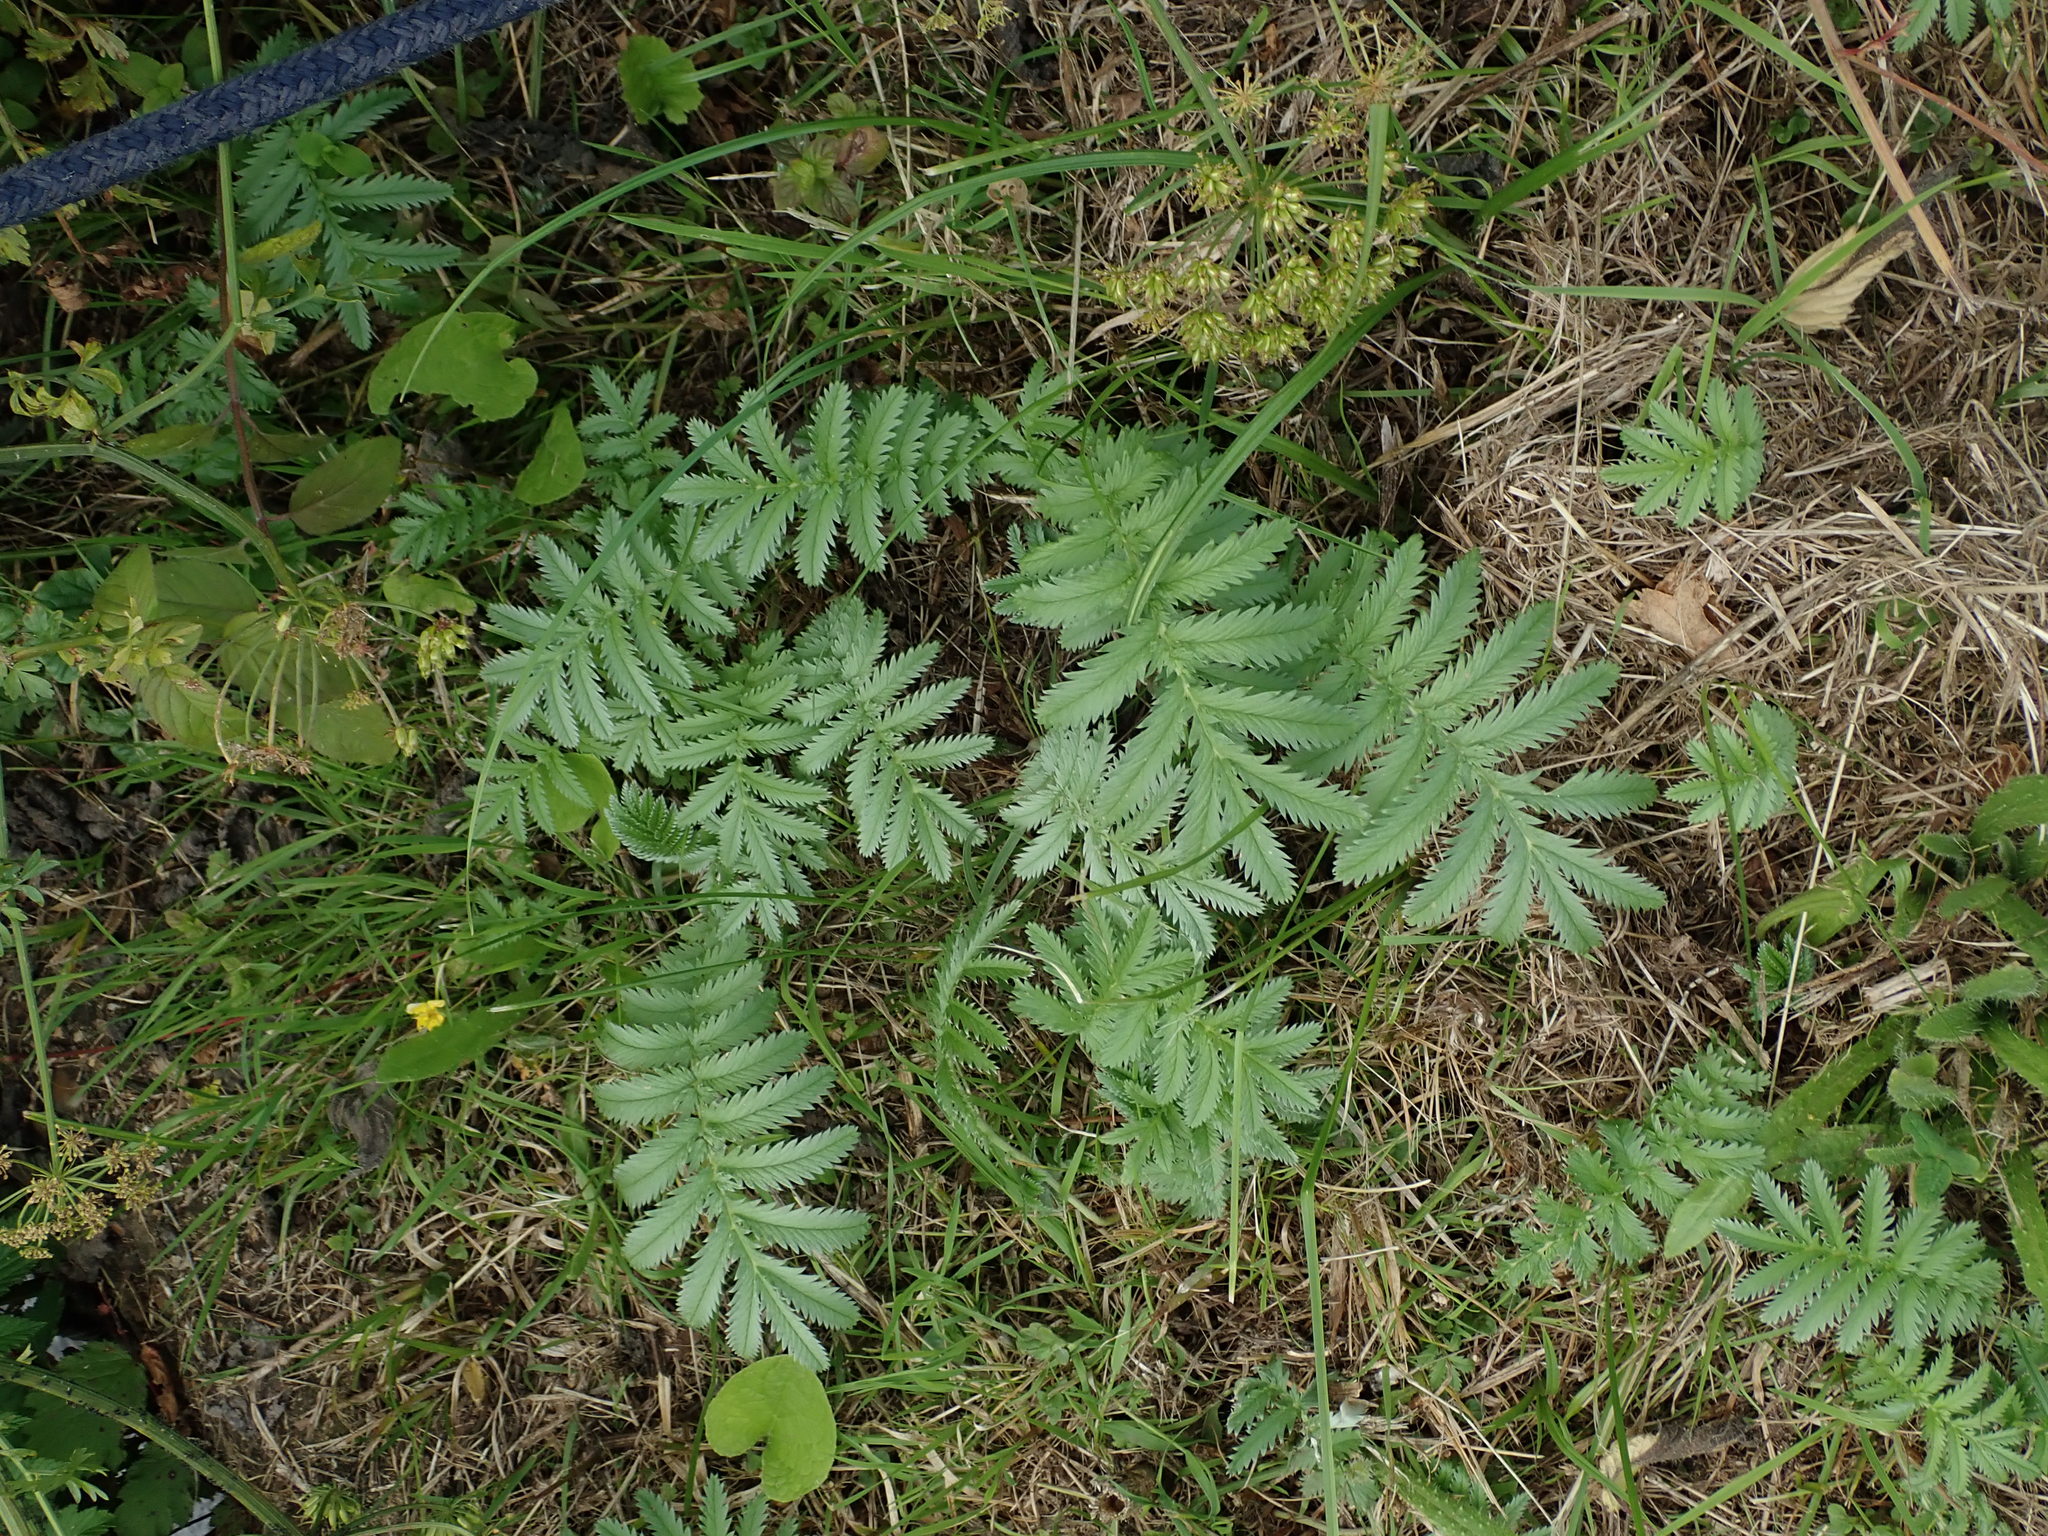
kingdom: Plantae
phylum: Tracheophyta
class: Magnoliopsida
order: Rosales
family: Rosaceae
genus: Argentina
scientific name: Argentina anserina
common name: Common silverweed
